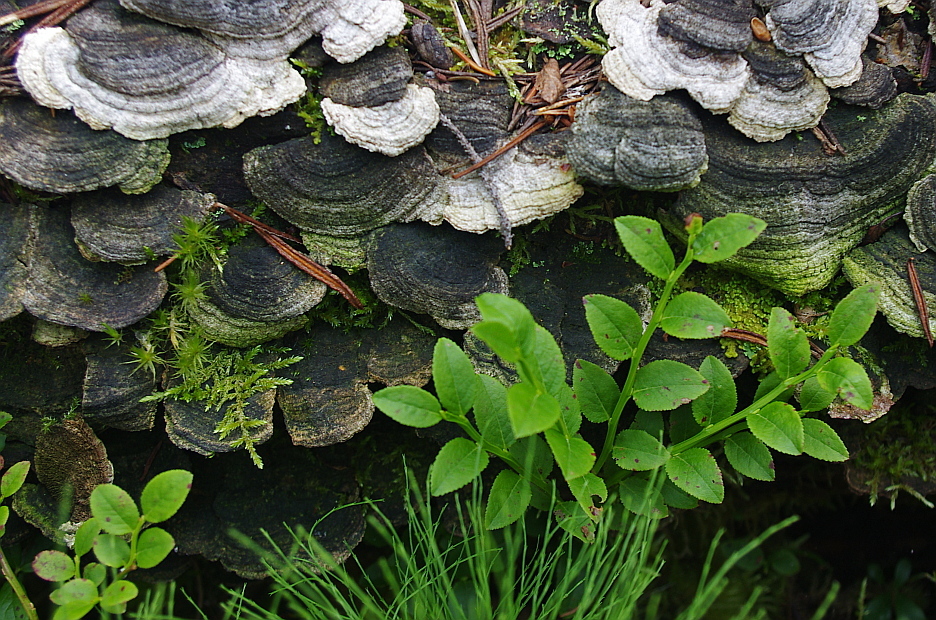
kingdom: Plantae
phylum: Tracheophyta
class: Magnoliopsida
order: Ericales
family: Ericaceae
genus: Vaccinium
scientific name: Vaccinium myrtillus
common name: Bilberry
